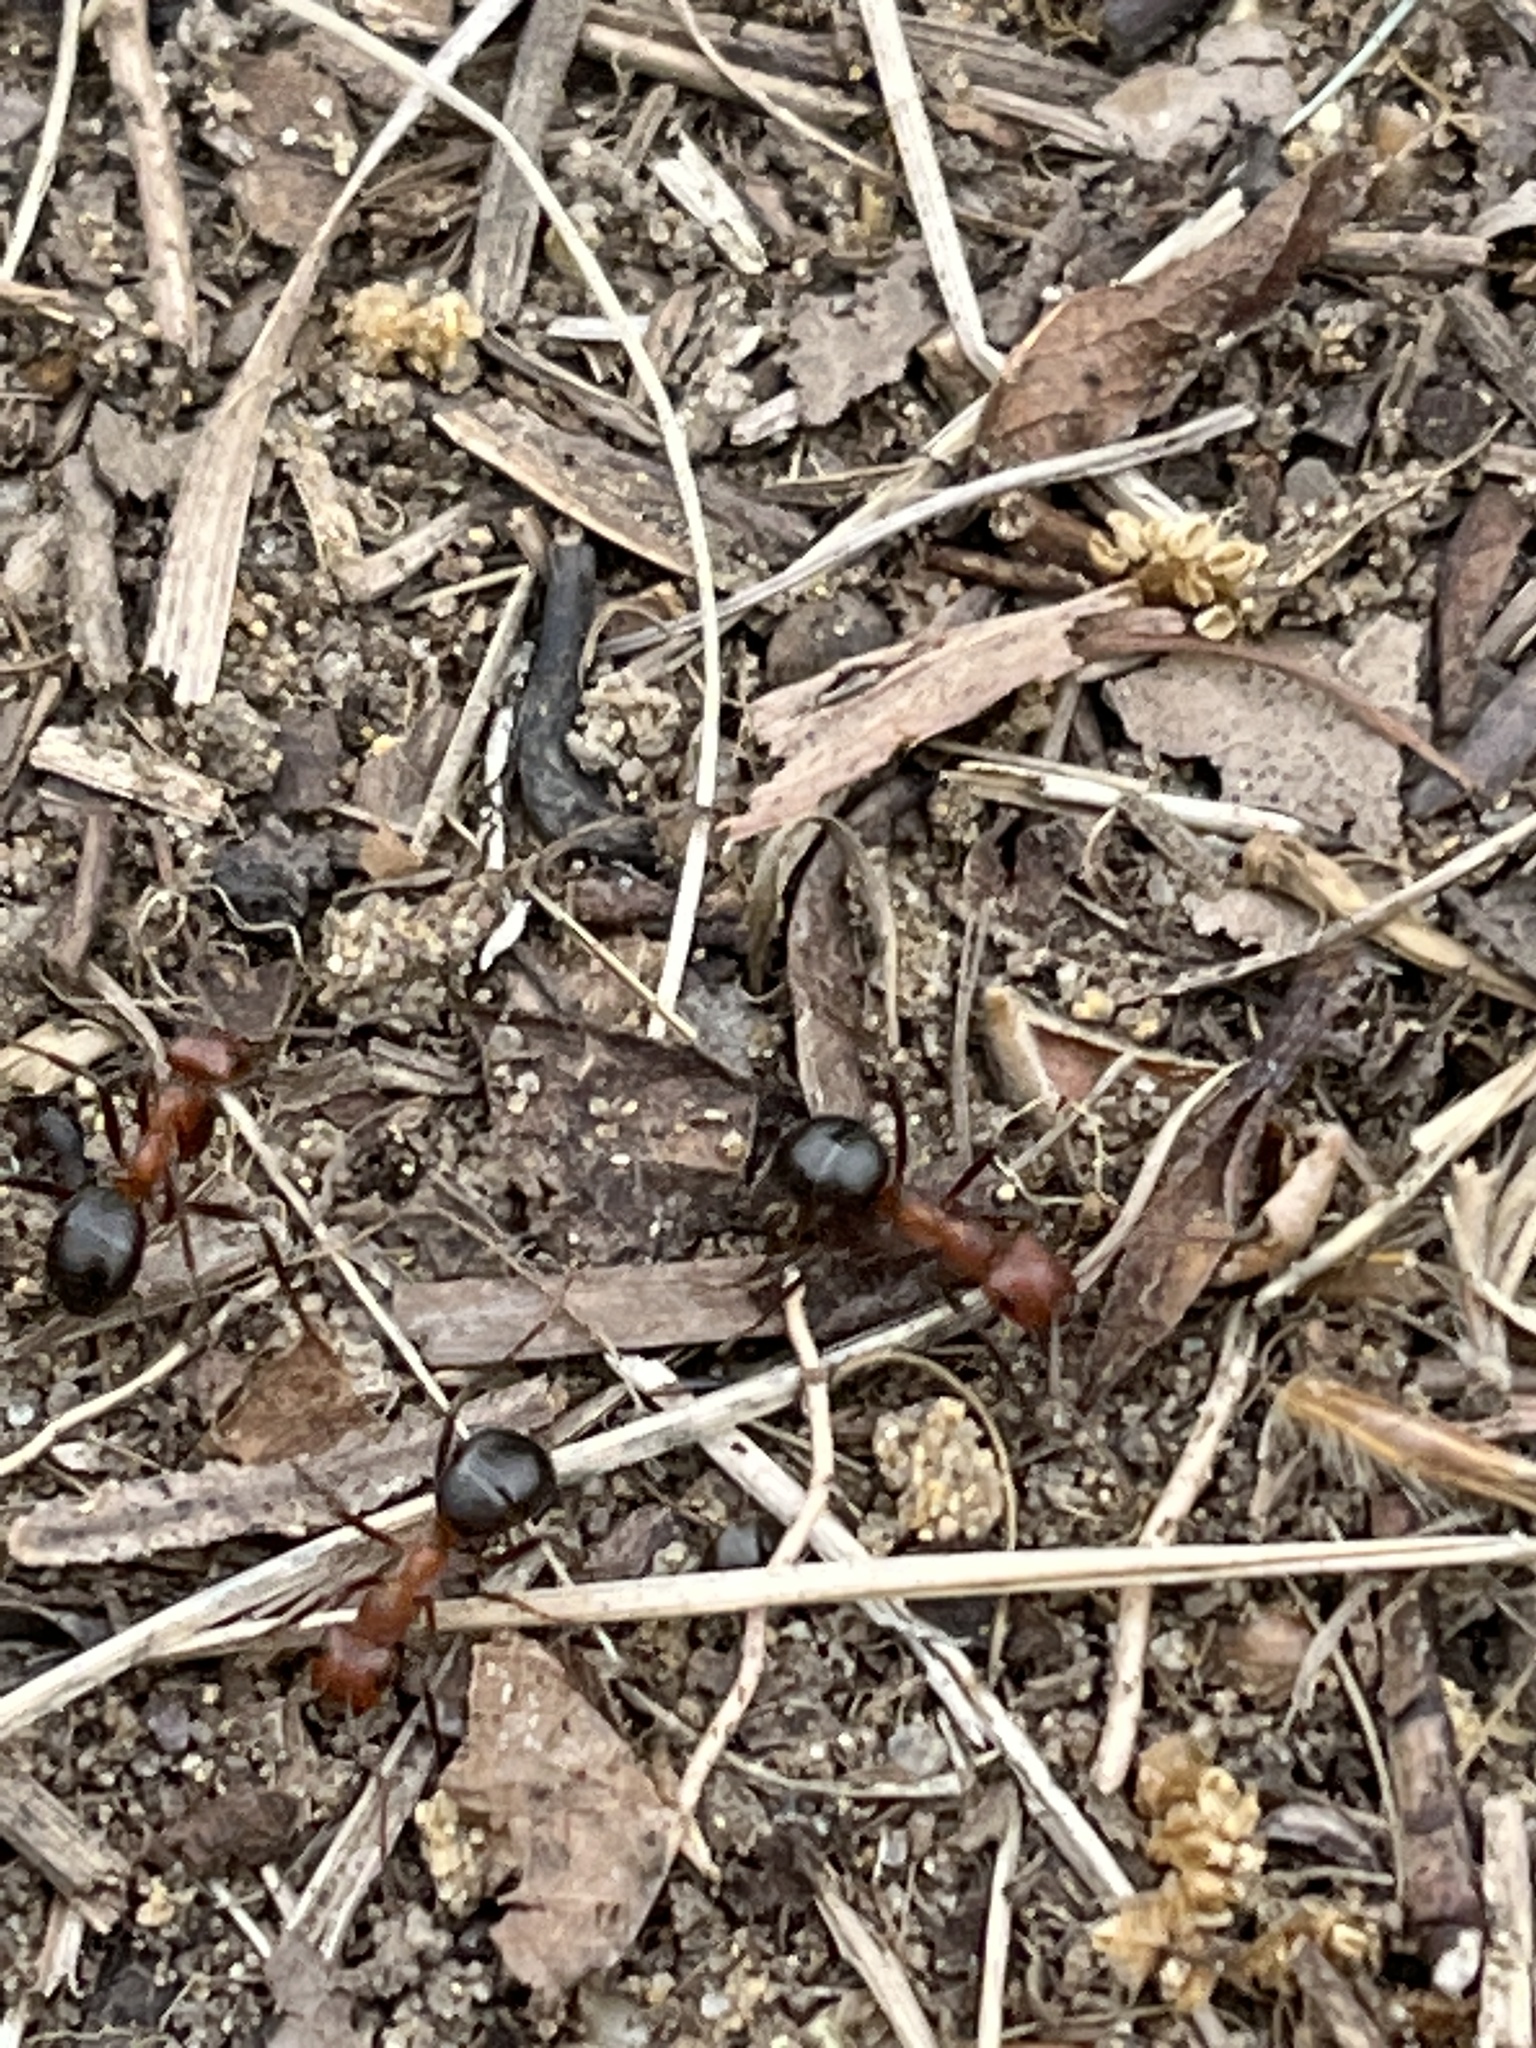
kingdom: Animalia
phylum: Arthropoda
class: Insecta
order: Hymenoptera
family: Formicidae
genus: Formica
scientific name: Formica exsectoides
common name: Allegheny mound ant
